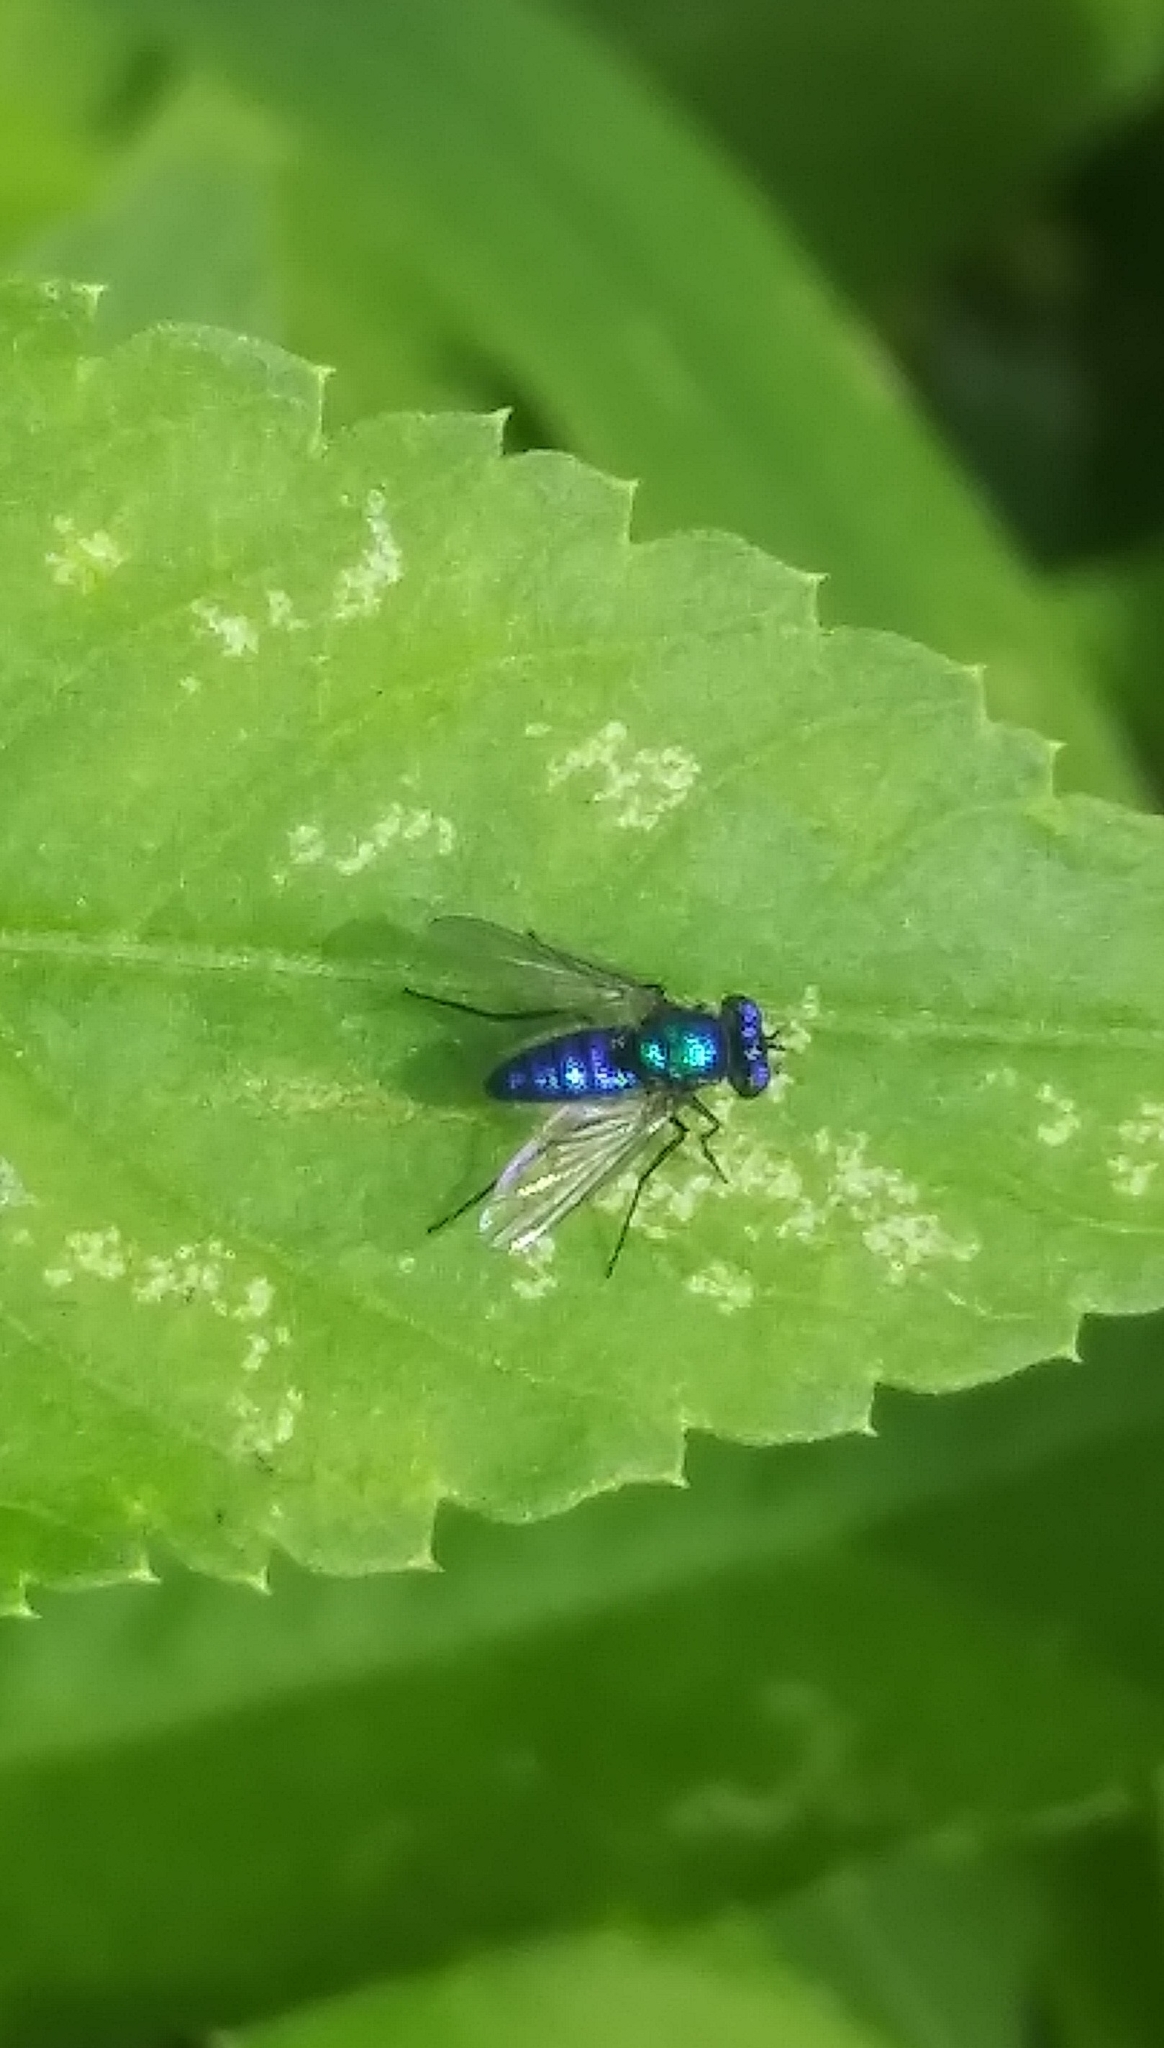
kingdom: Animalia
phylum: Arthropoda
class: Insecta
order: Diptera
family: Dolichopodidae
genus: Condylostylus
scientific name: Condylostylus mundus
